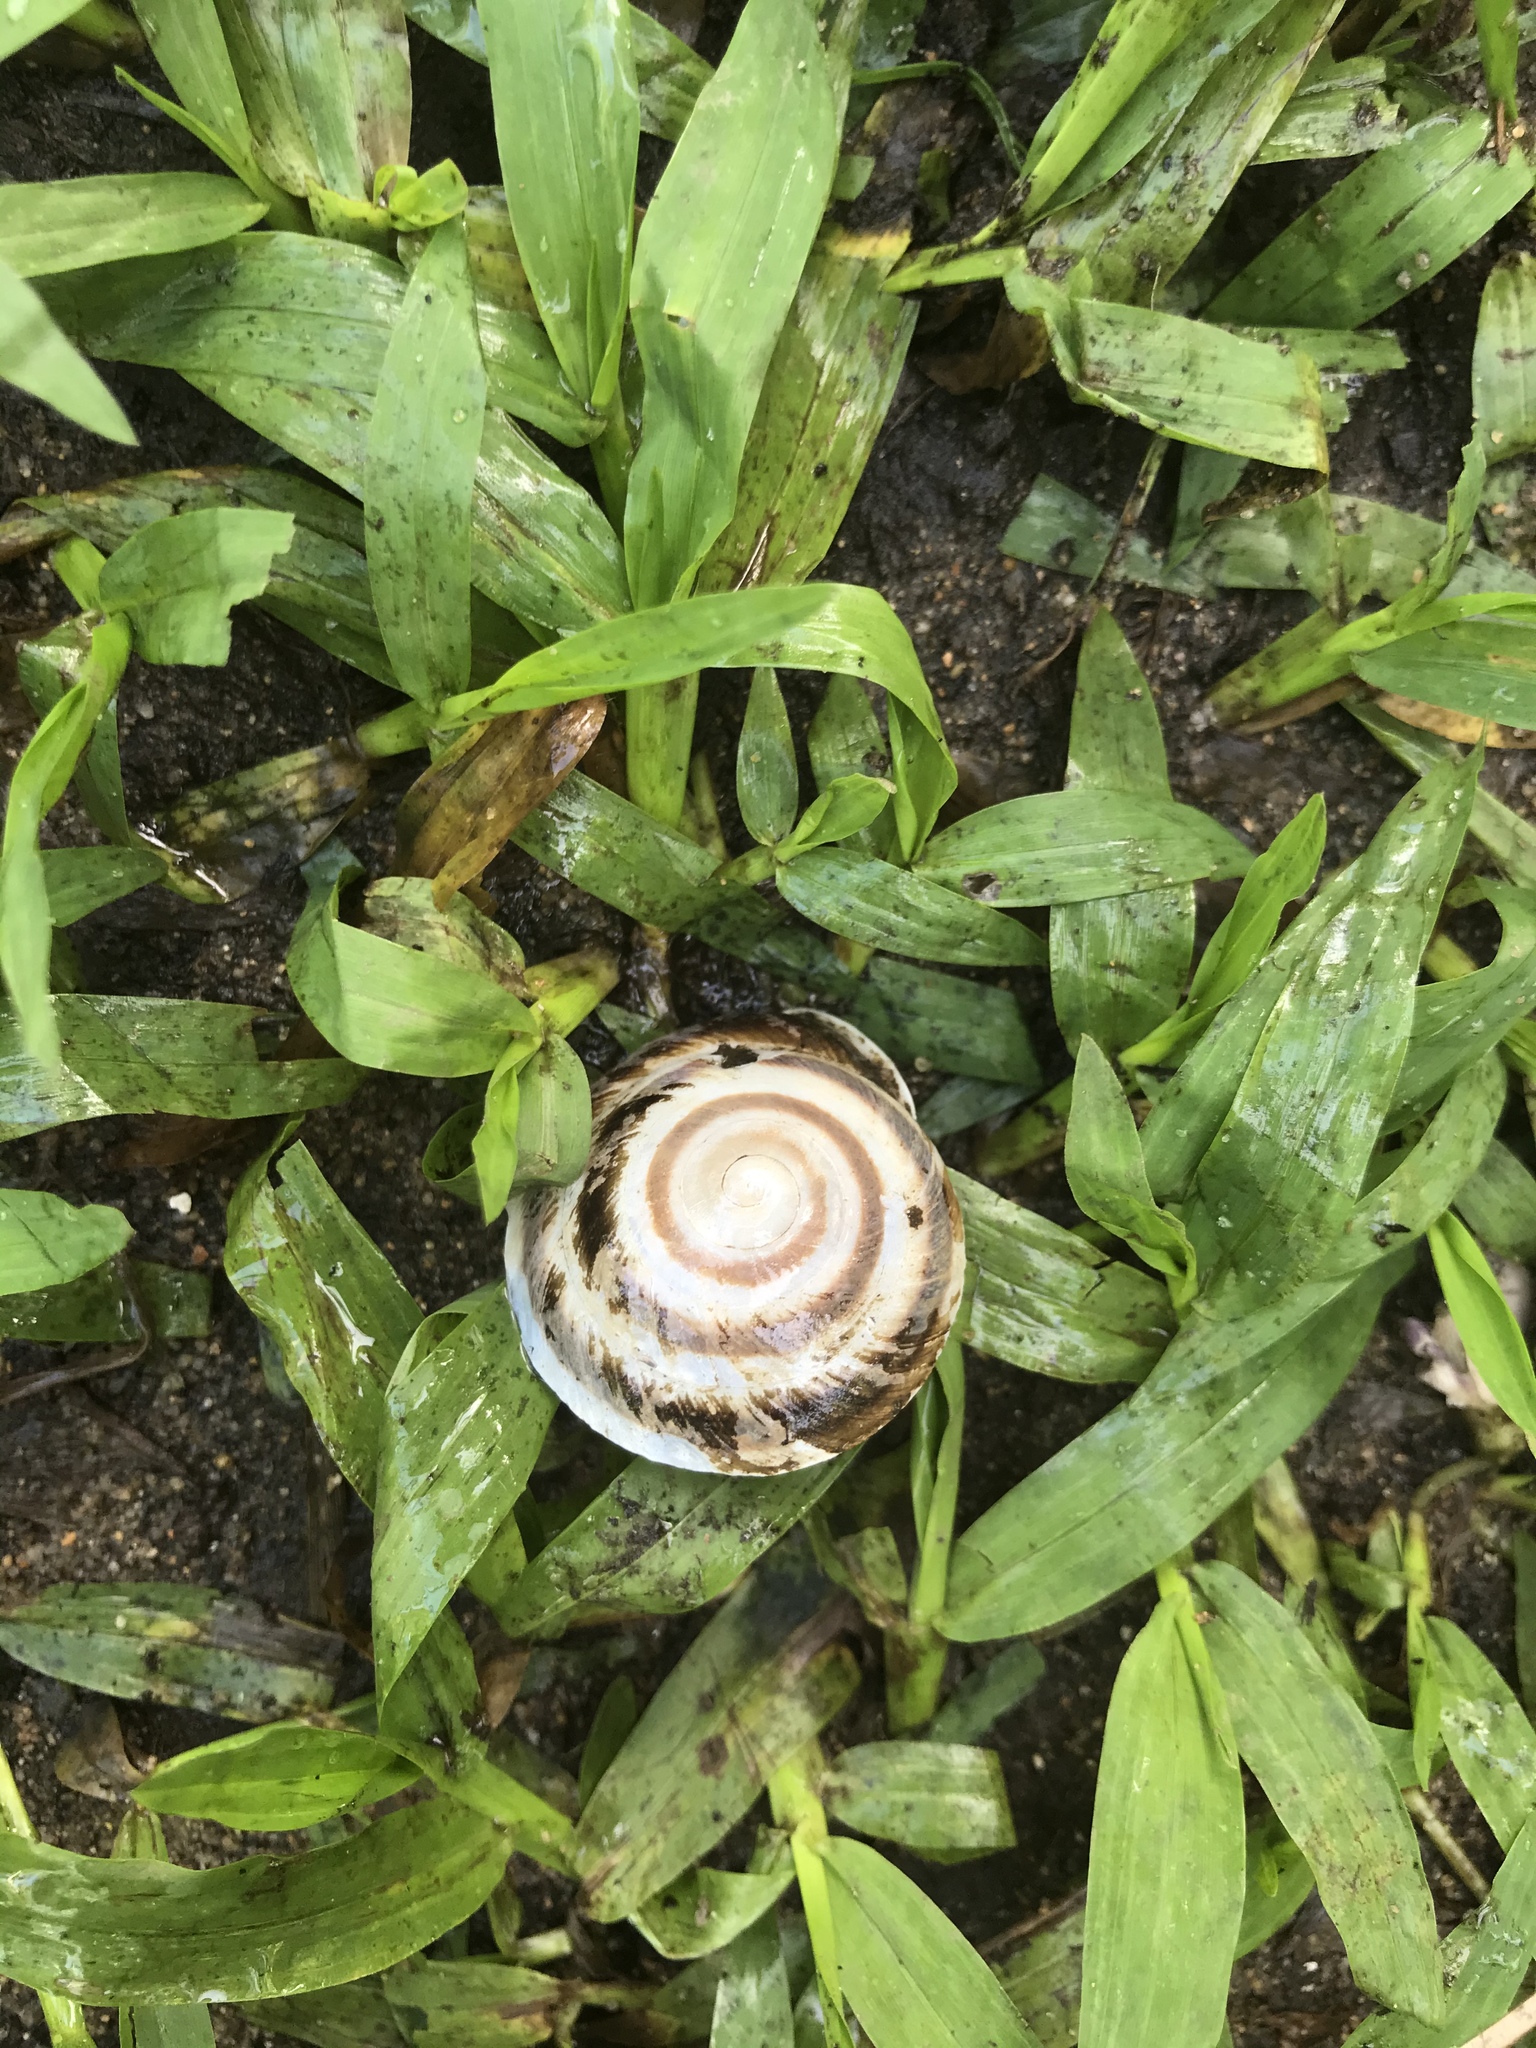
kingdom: Animalia
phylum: Mollusca
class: Gastropoda
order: Stylommatophora
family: Solaropsidae
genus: Caracolus
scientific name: Caracolus marginella
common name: Banded caracol
